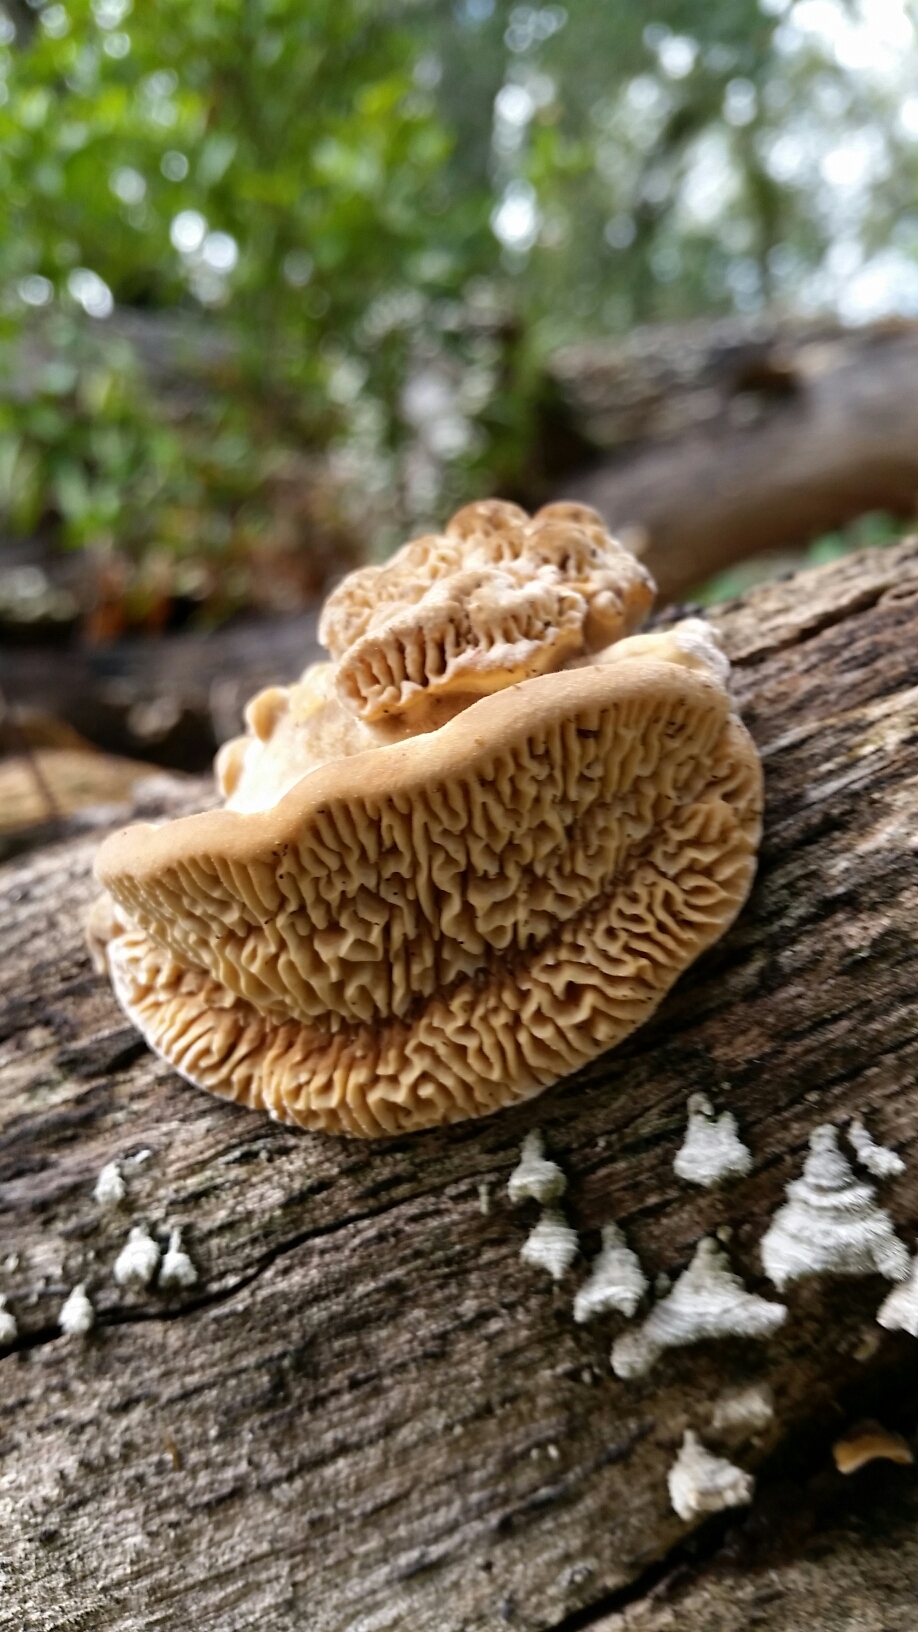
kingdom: Fungi
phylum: Basidiomycota
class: Agaricomycetes
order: Polyporales
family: Polyporaceae
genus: Lenzites
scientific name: Lenzites betulinus
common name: Birch mazegill
